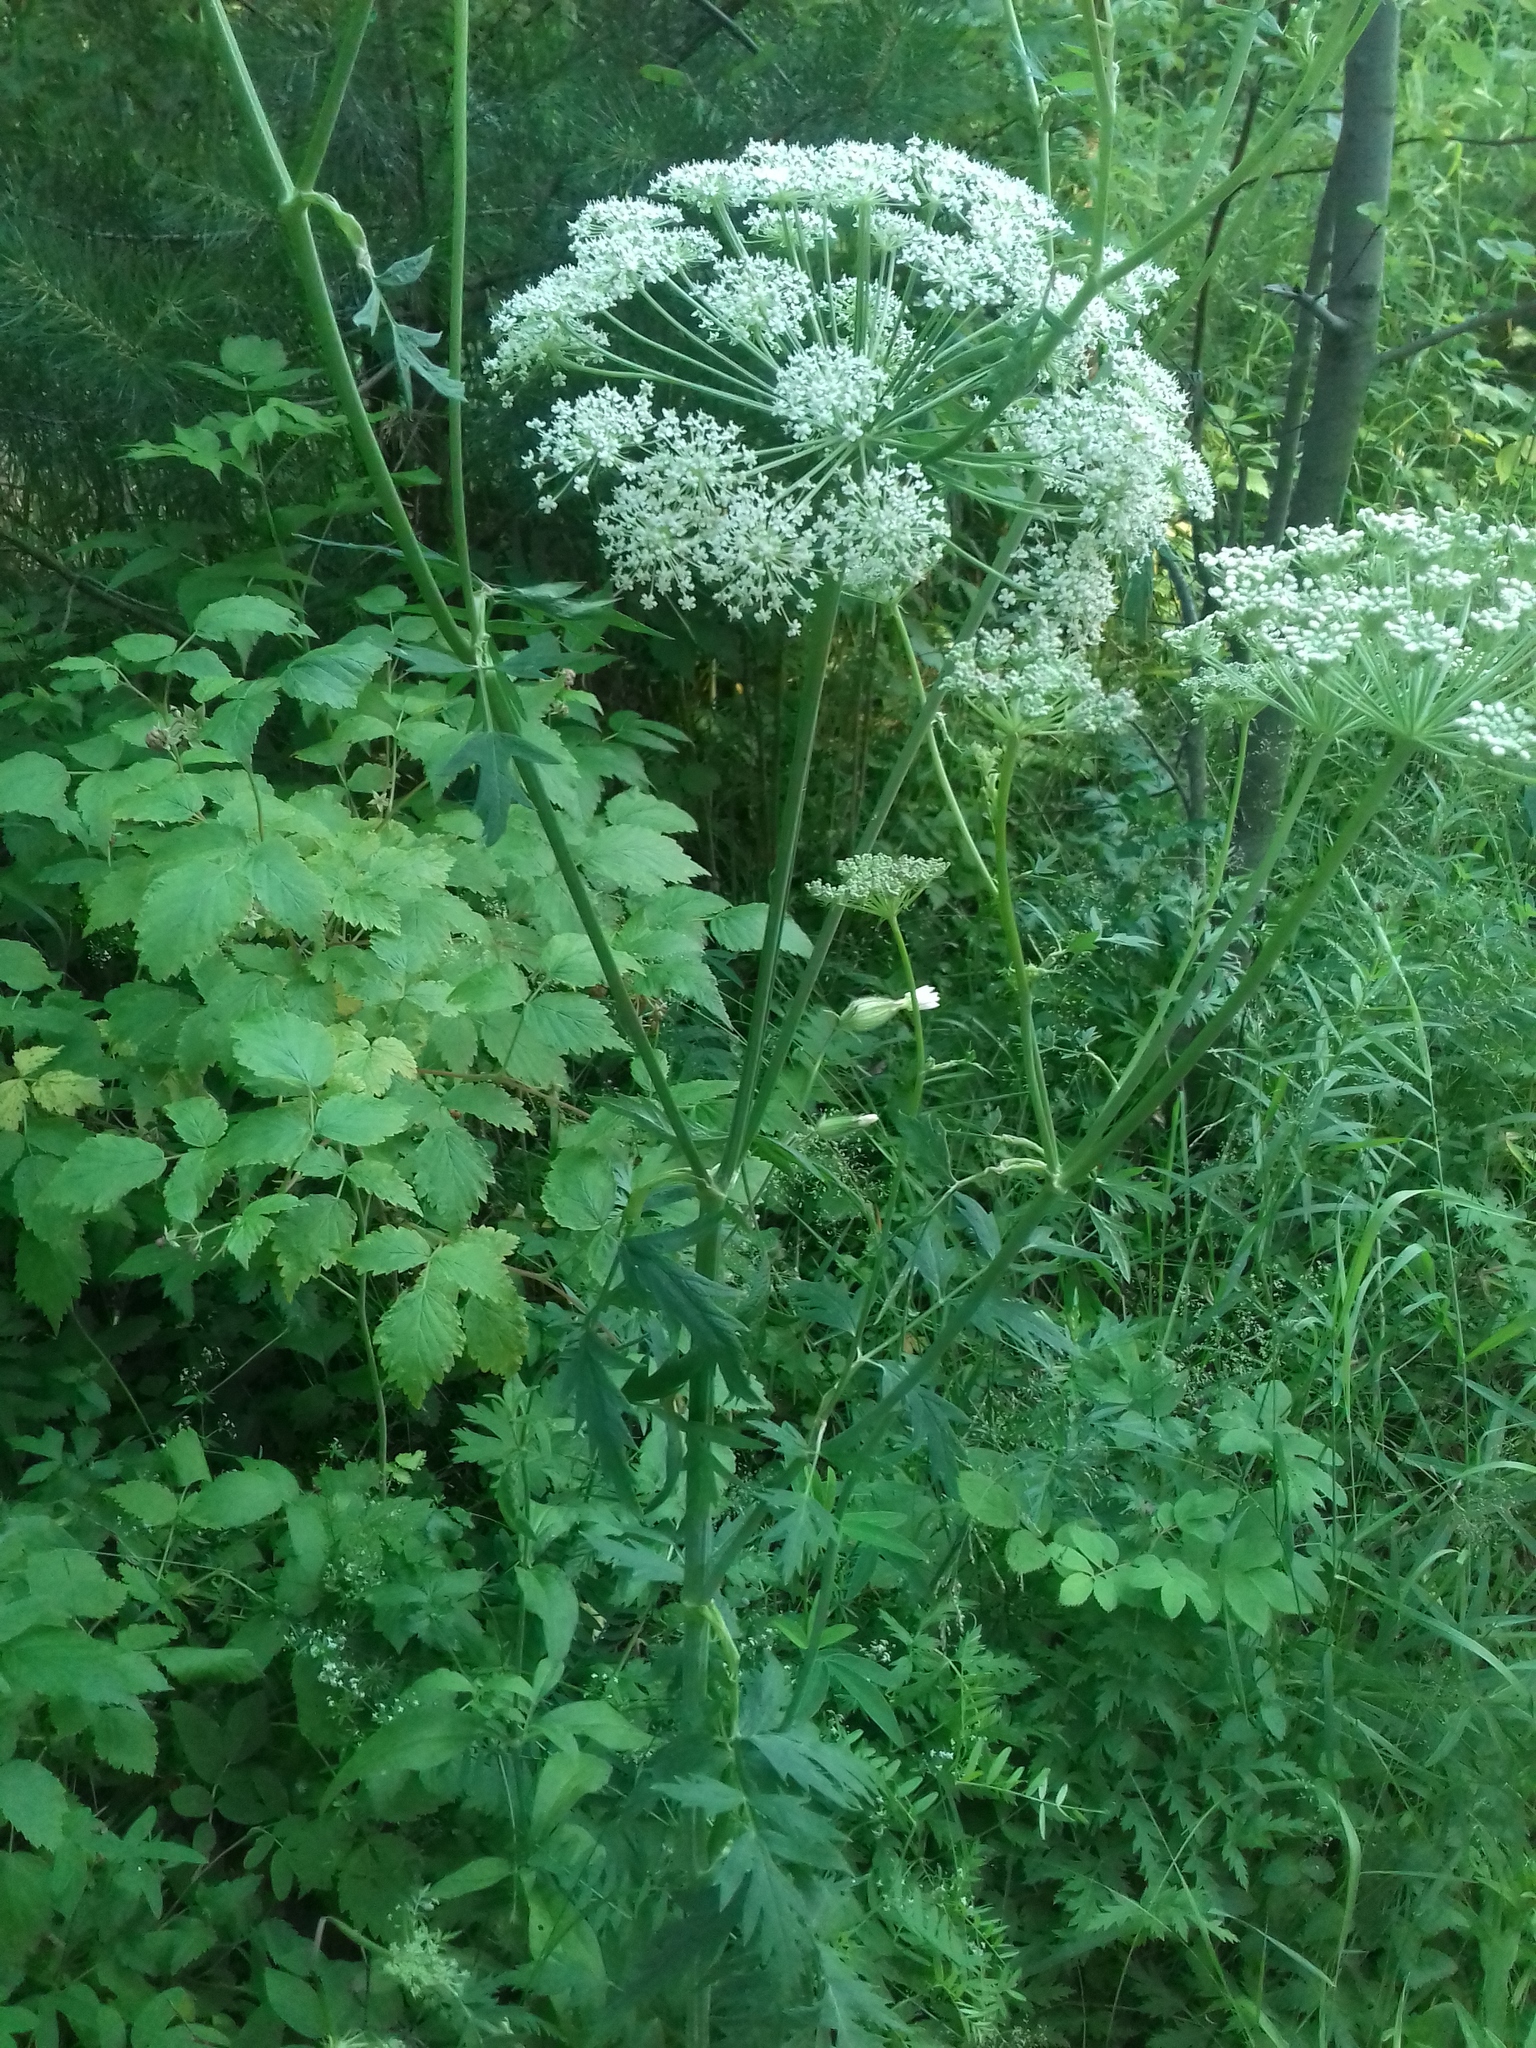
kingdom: Plantae
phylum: Tracheophyta
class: Magnoliopsida
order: Apiales
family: Apiaceae
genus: Seseli
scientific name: Seseli krylovii
